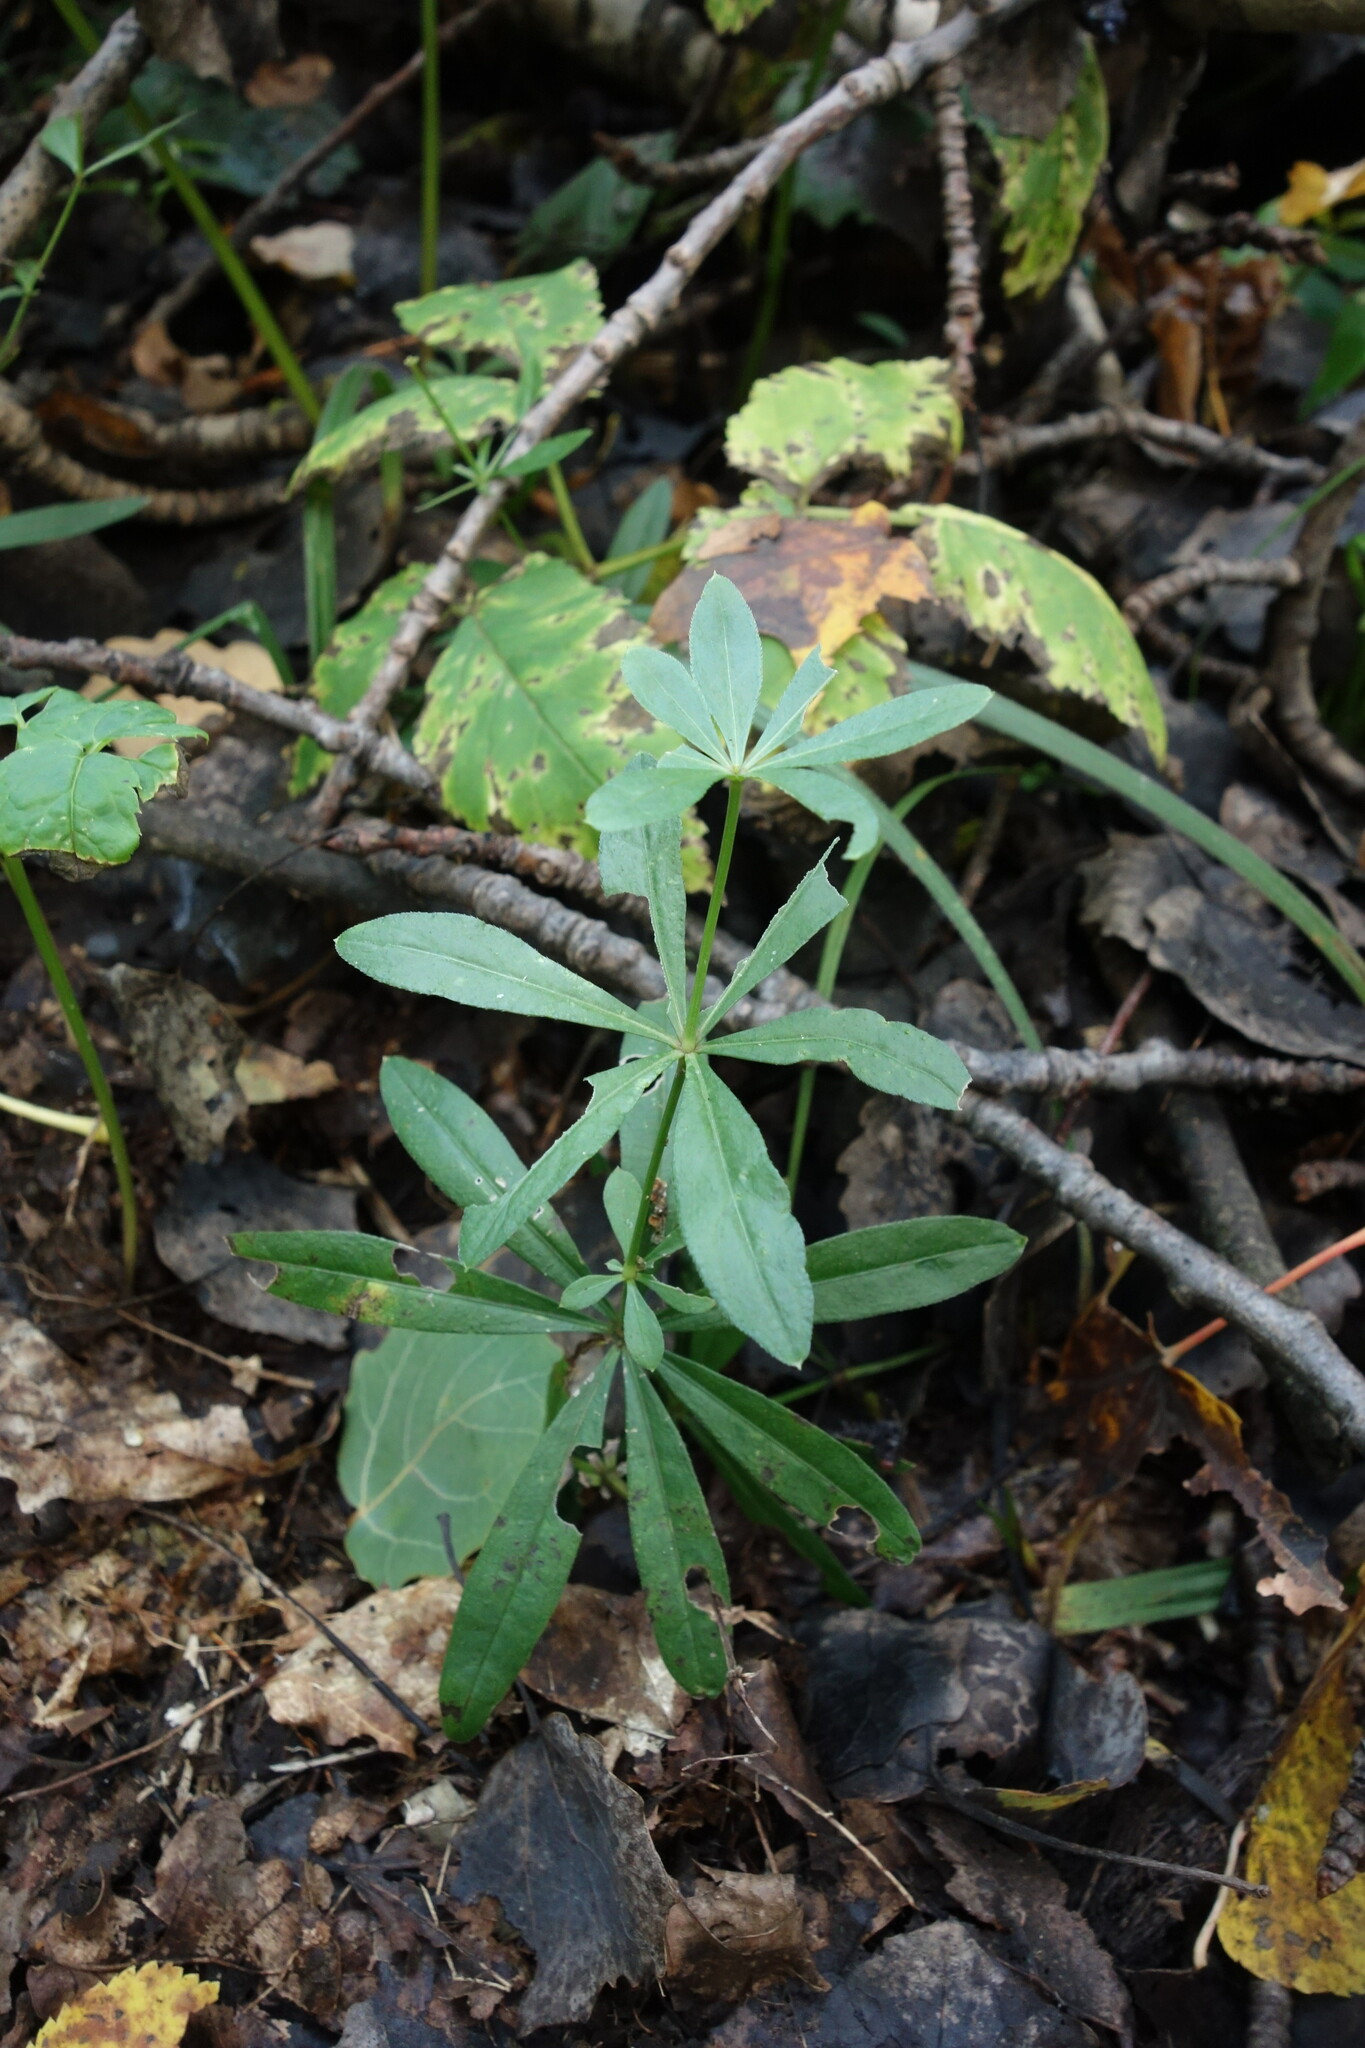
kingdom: Plantae
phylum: Tracheophyta
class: Magnoliopsida
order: Gentianales
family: Rubiaceae
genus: Galium
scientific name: Galium odoratum
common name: Sweet woodruff
